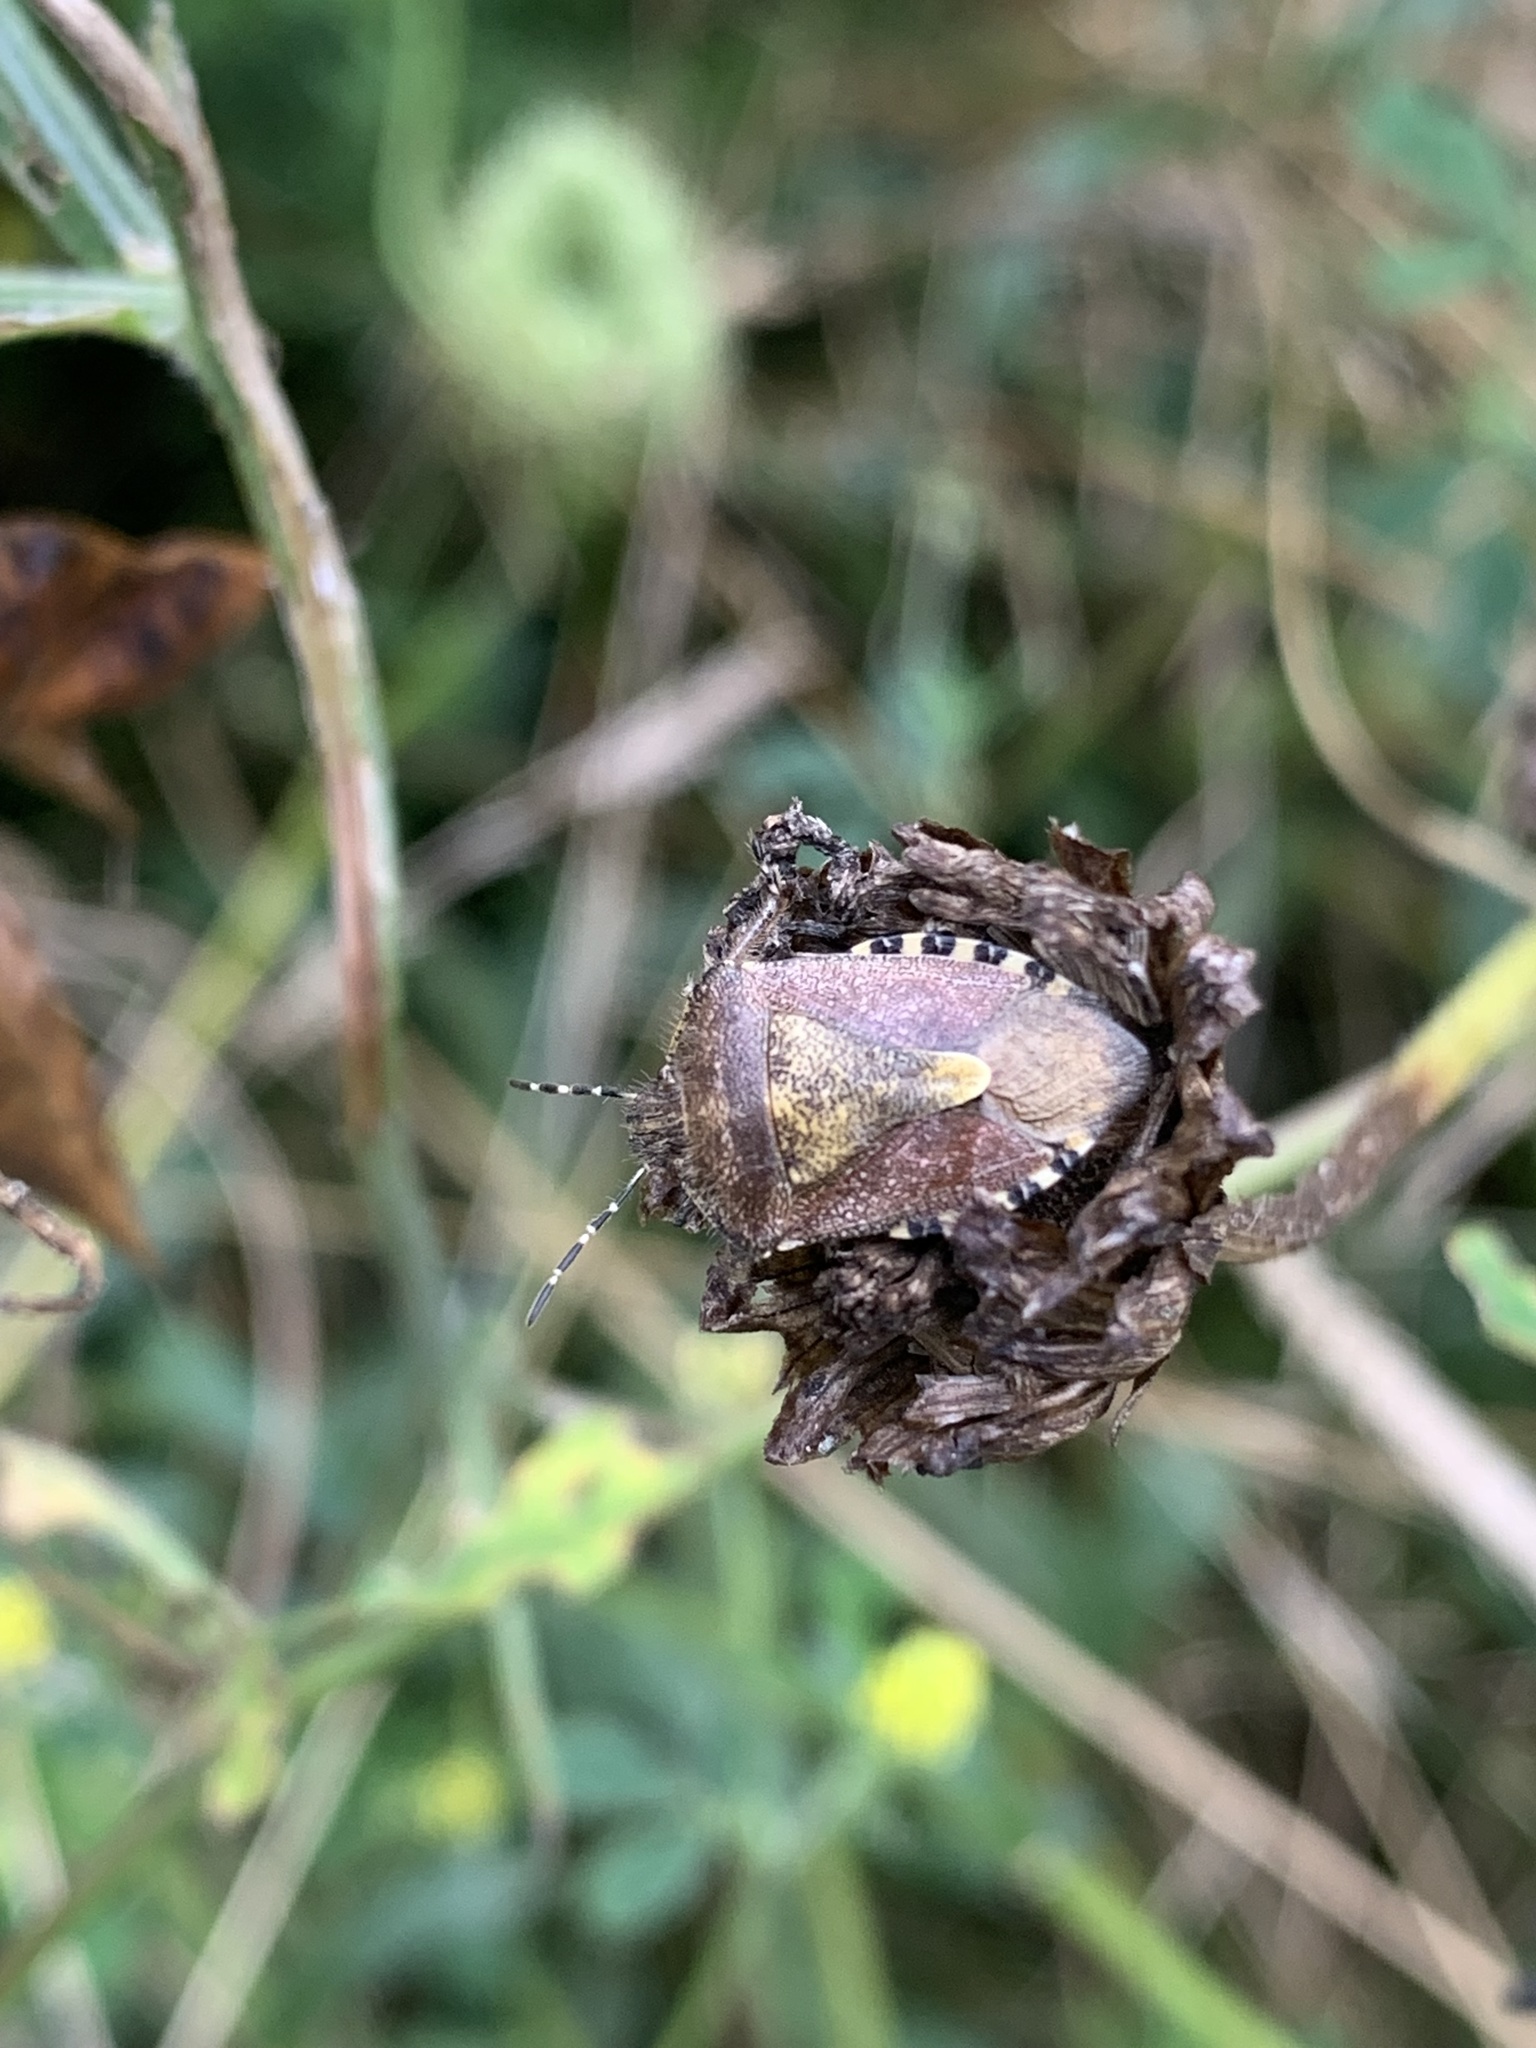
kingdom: Animalia
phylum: Arthropoda
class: Insecta
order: Hemiptera
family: Pentatomidae
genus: Dolycoris
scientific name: Dolycoris baccarum
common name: Sloe bug
